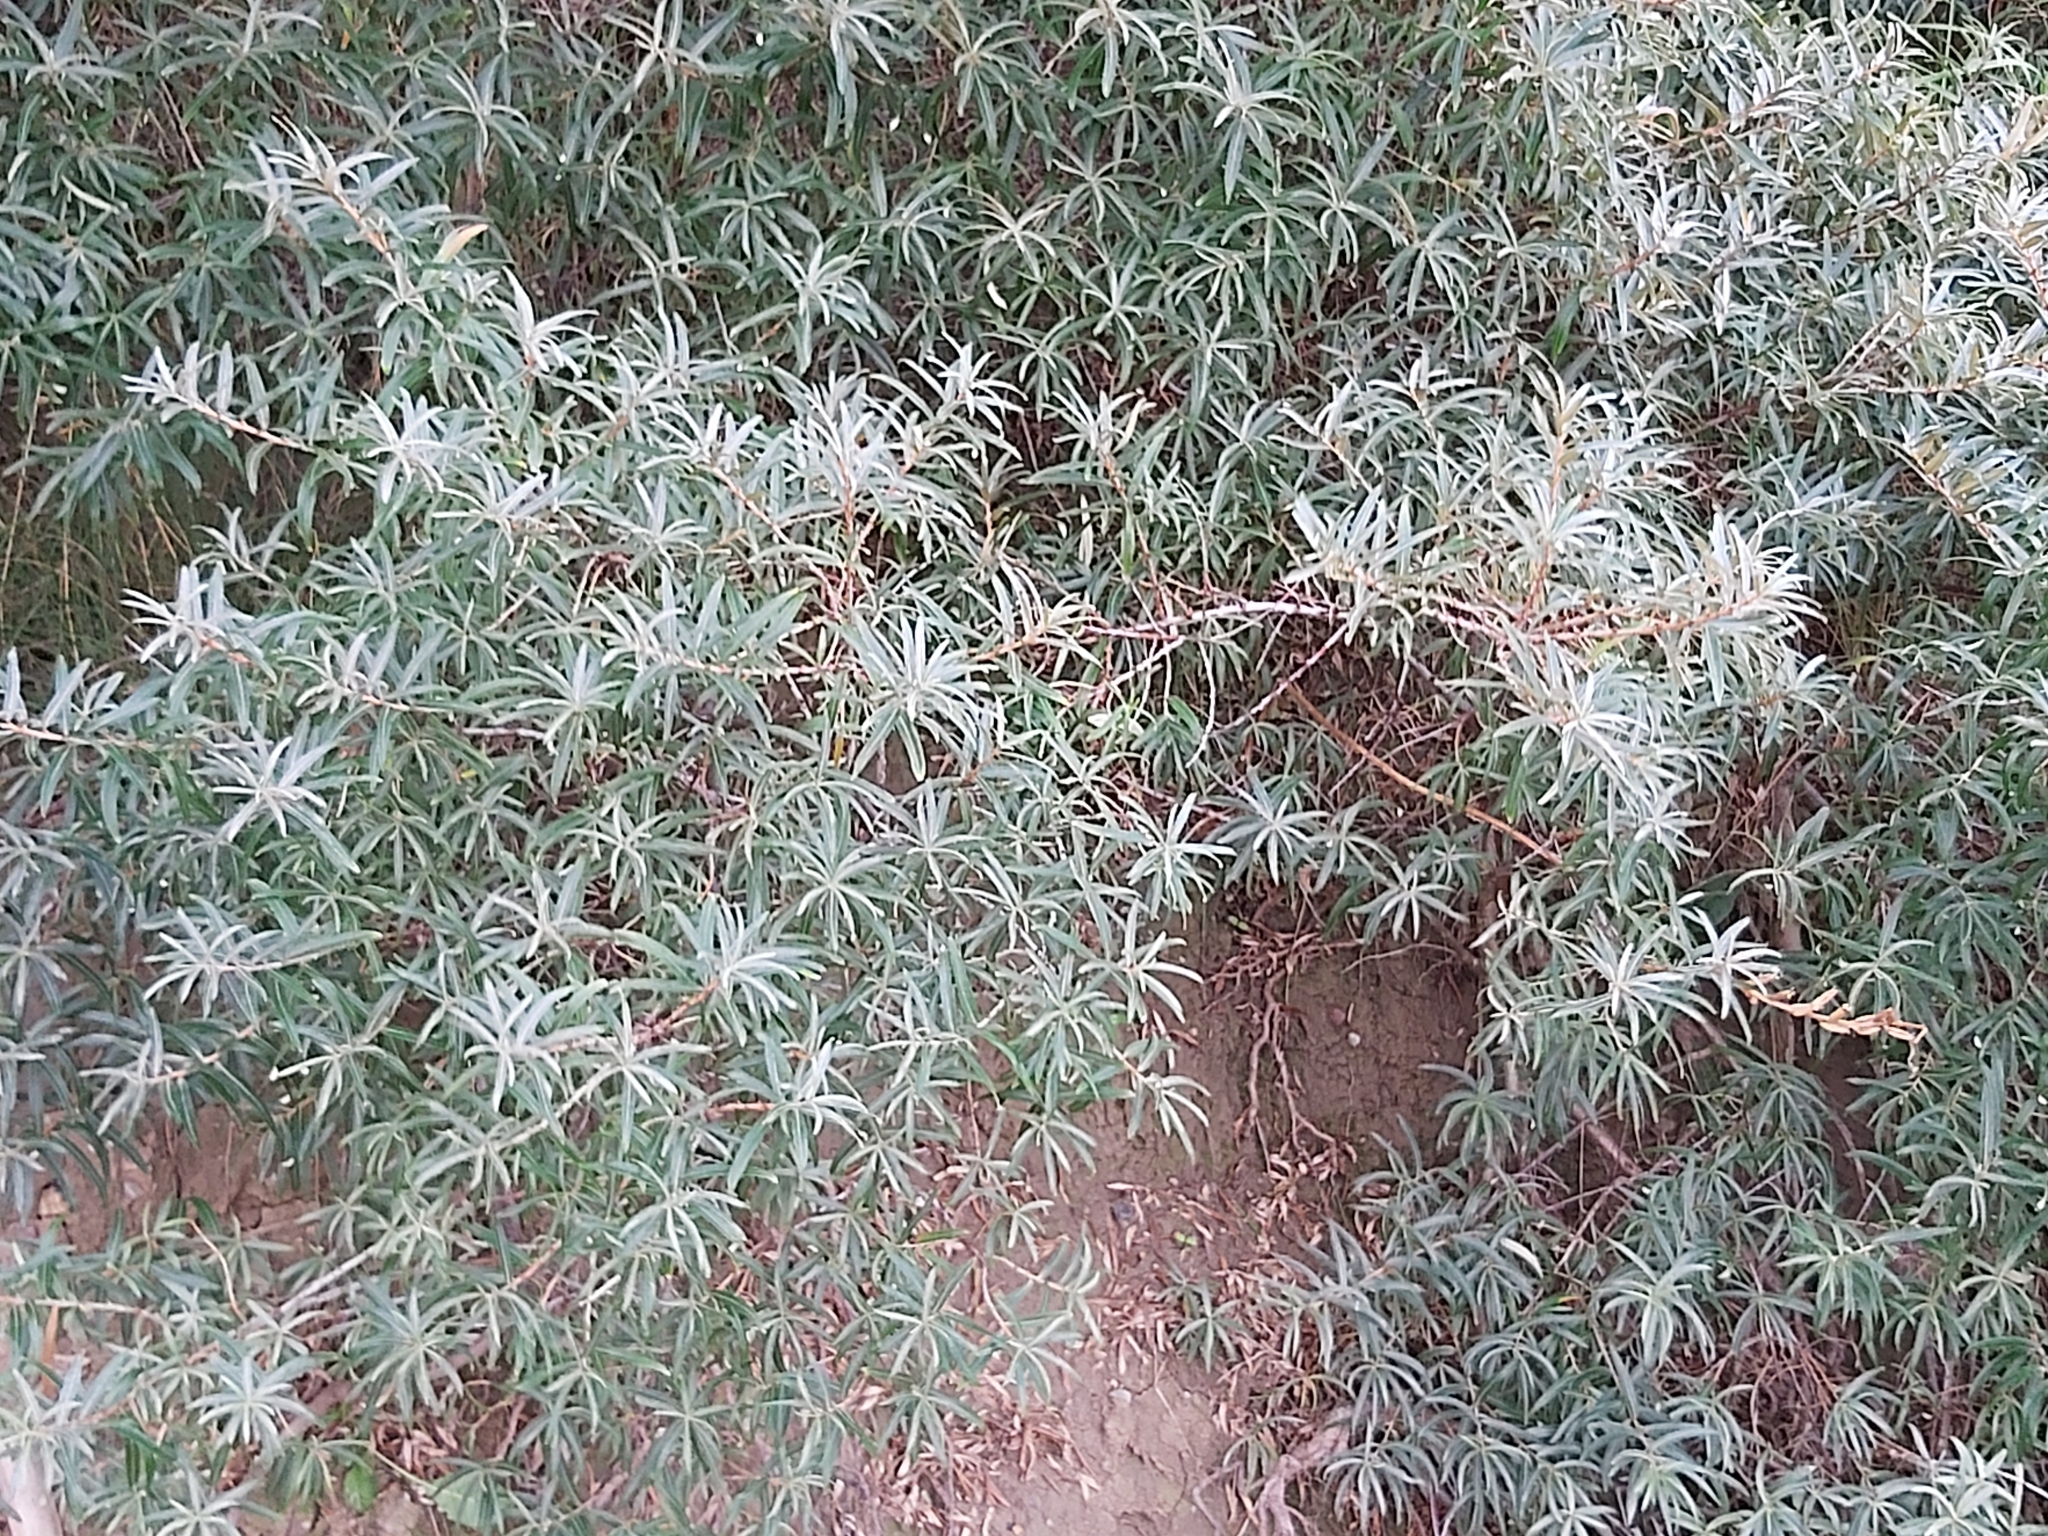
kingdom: Plantae
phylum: Tracheophyta
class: Magnoliopsida
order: Rosales
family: Elaeagnaceae
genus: Hippophae
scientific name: Hippophae rhamnoides
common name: Sea-buckthorn
